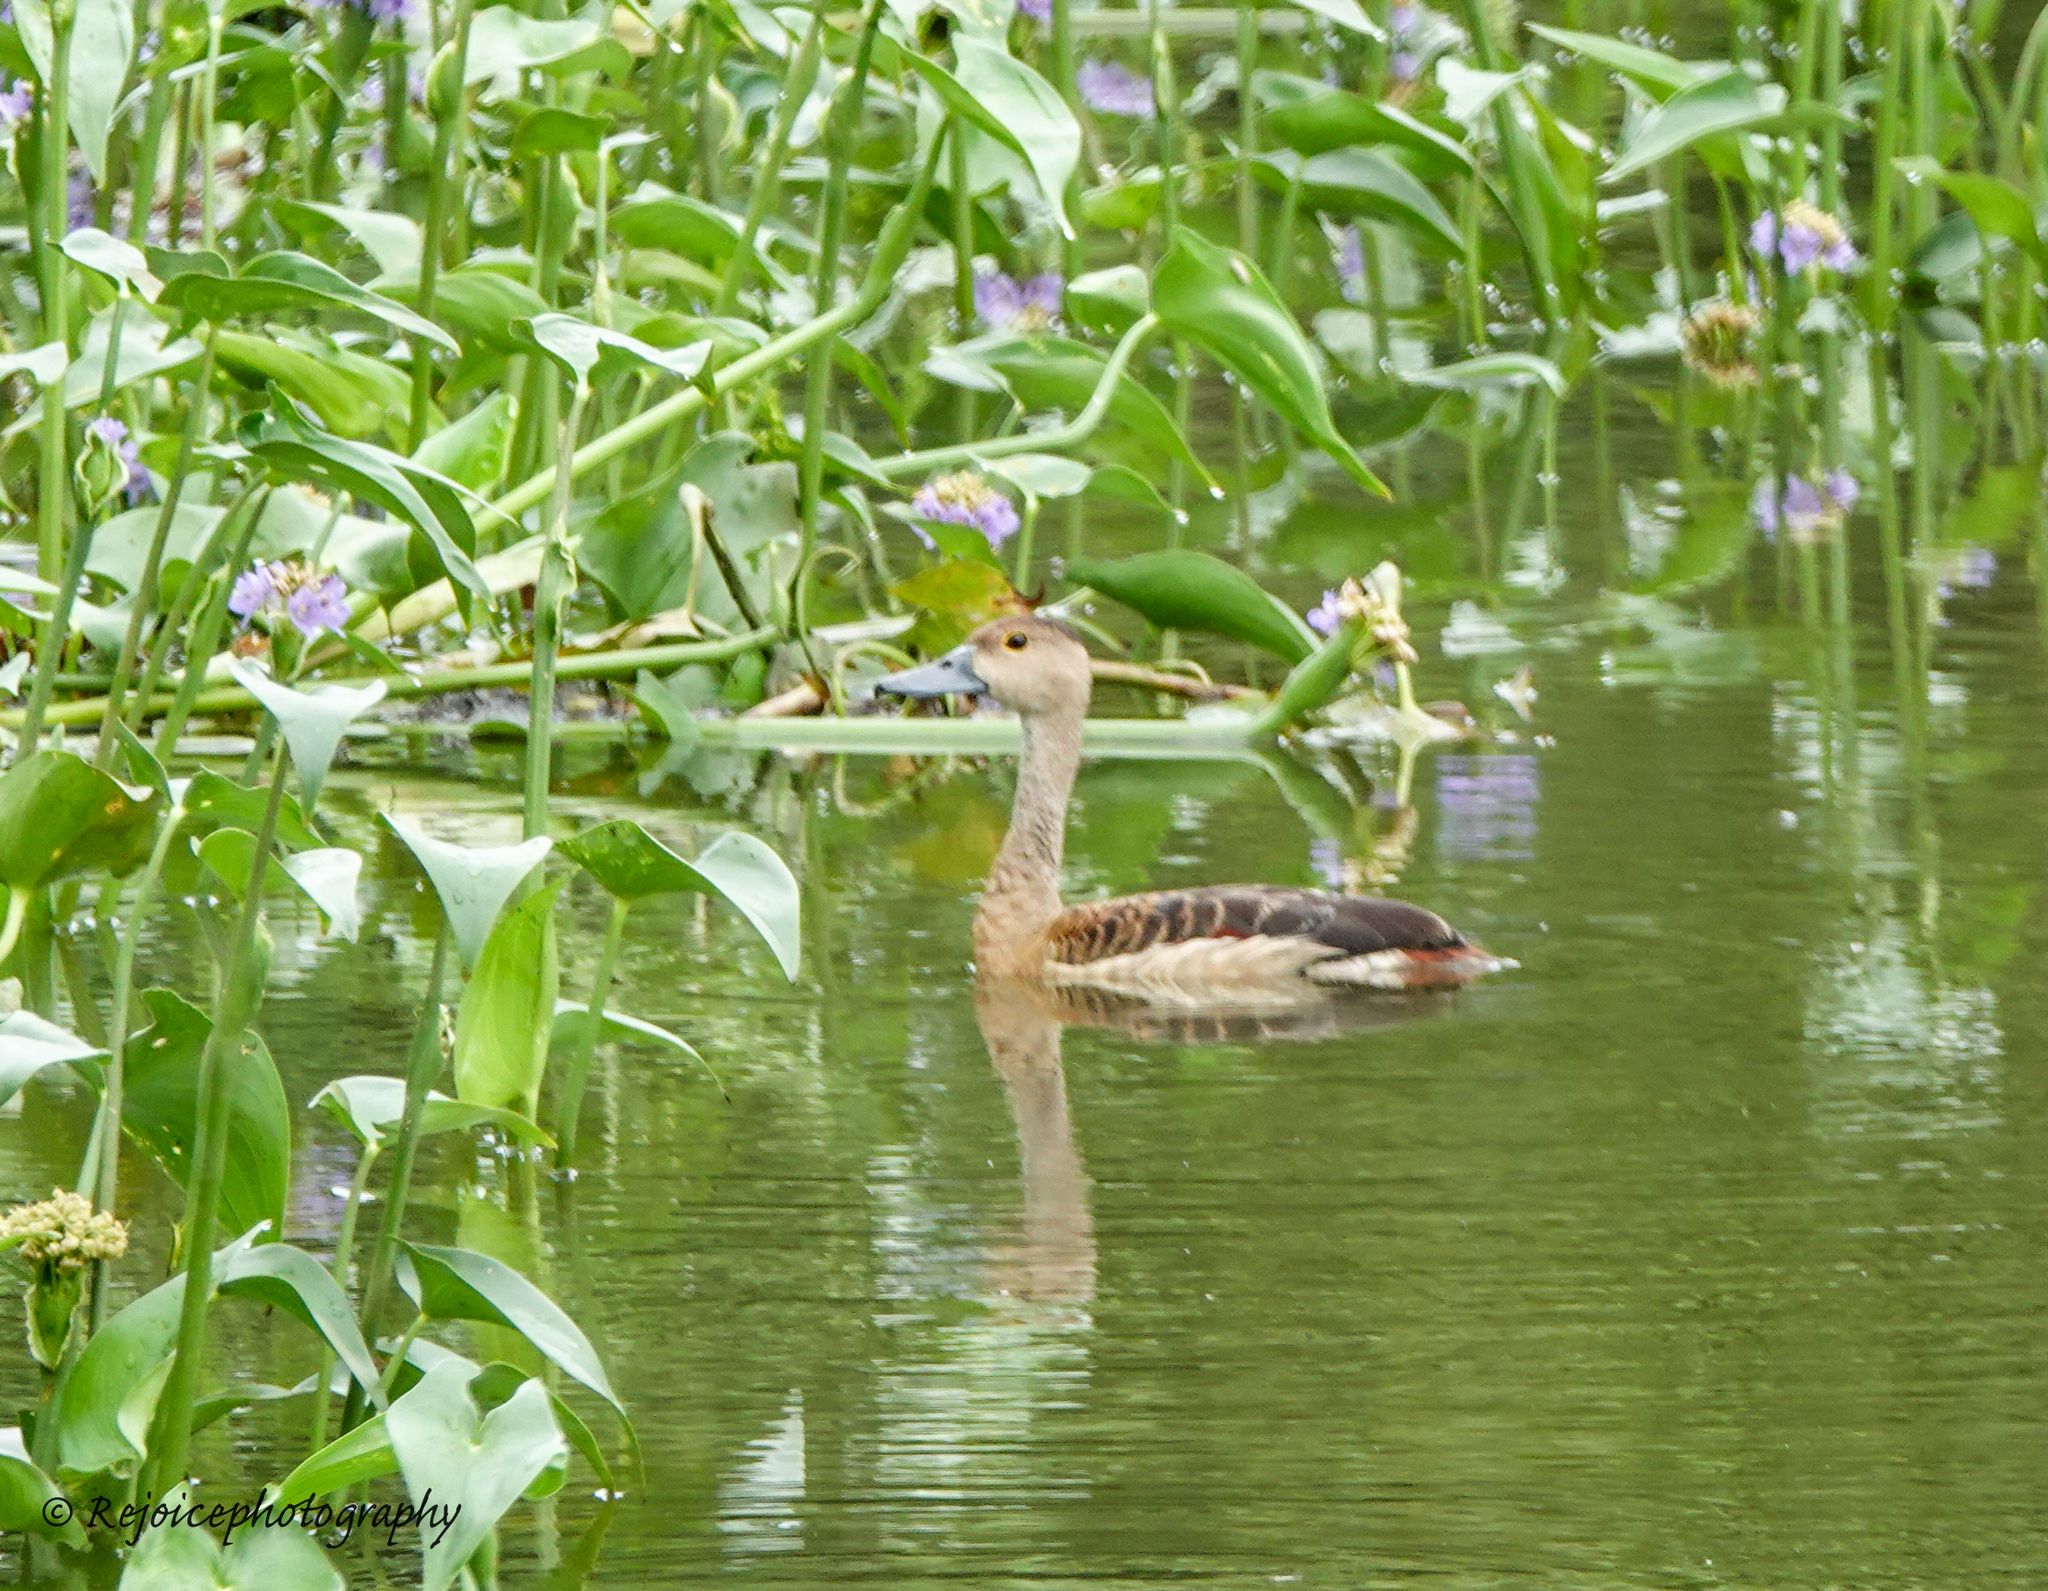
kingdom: Animalia
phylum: Chordata
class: Aves
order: Anseriformes
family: Anatidae
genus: Dendrocygna
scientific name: Dendrocygna javanica
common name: Lesser whistling-duck
